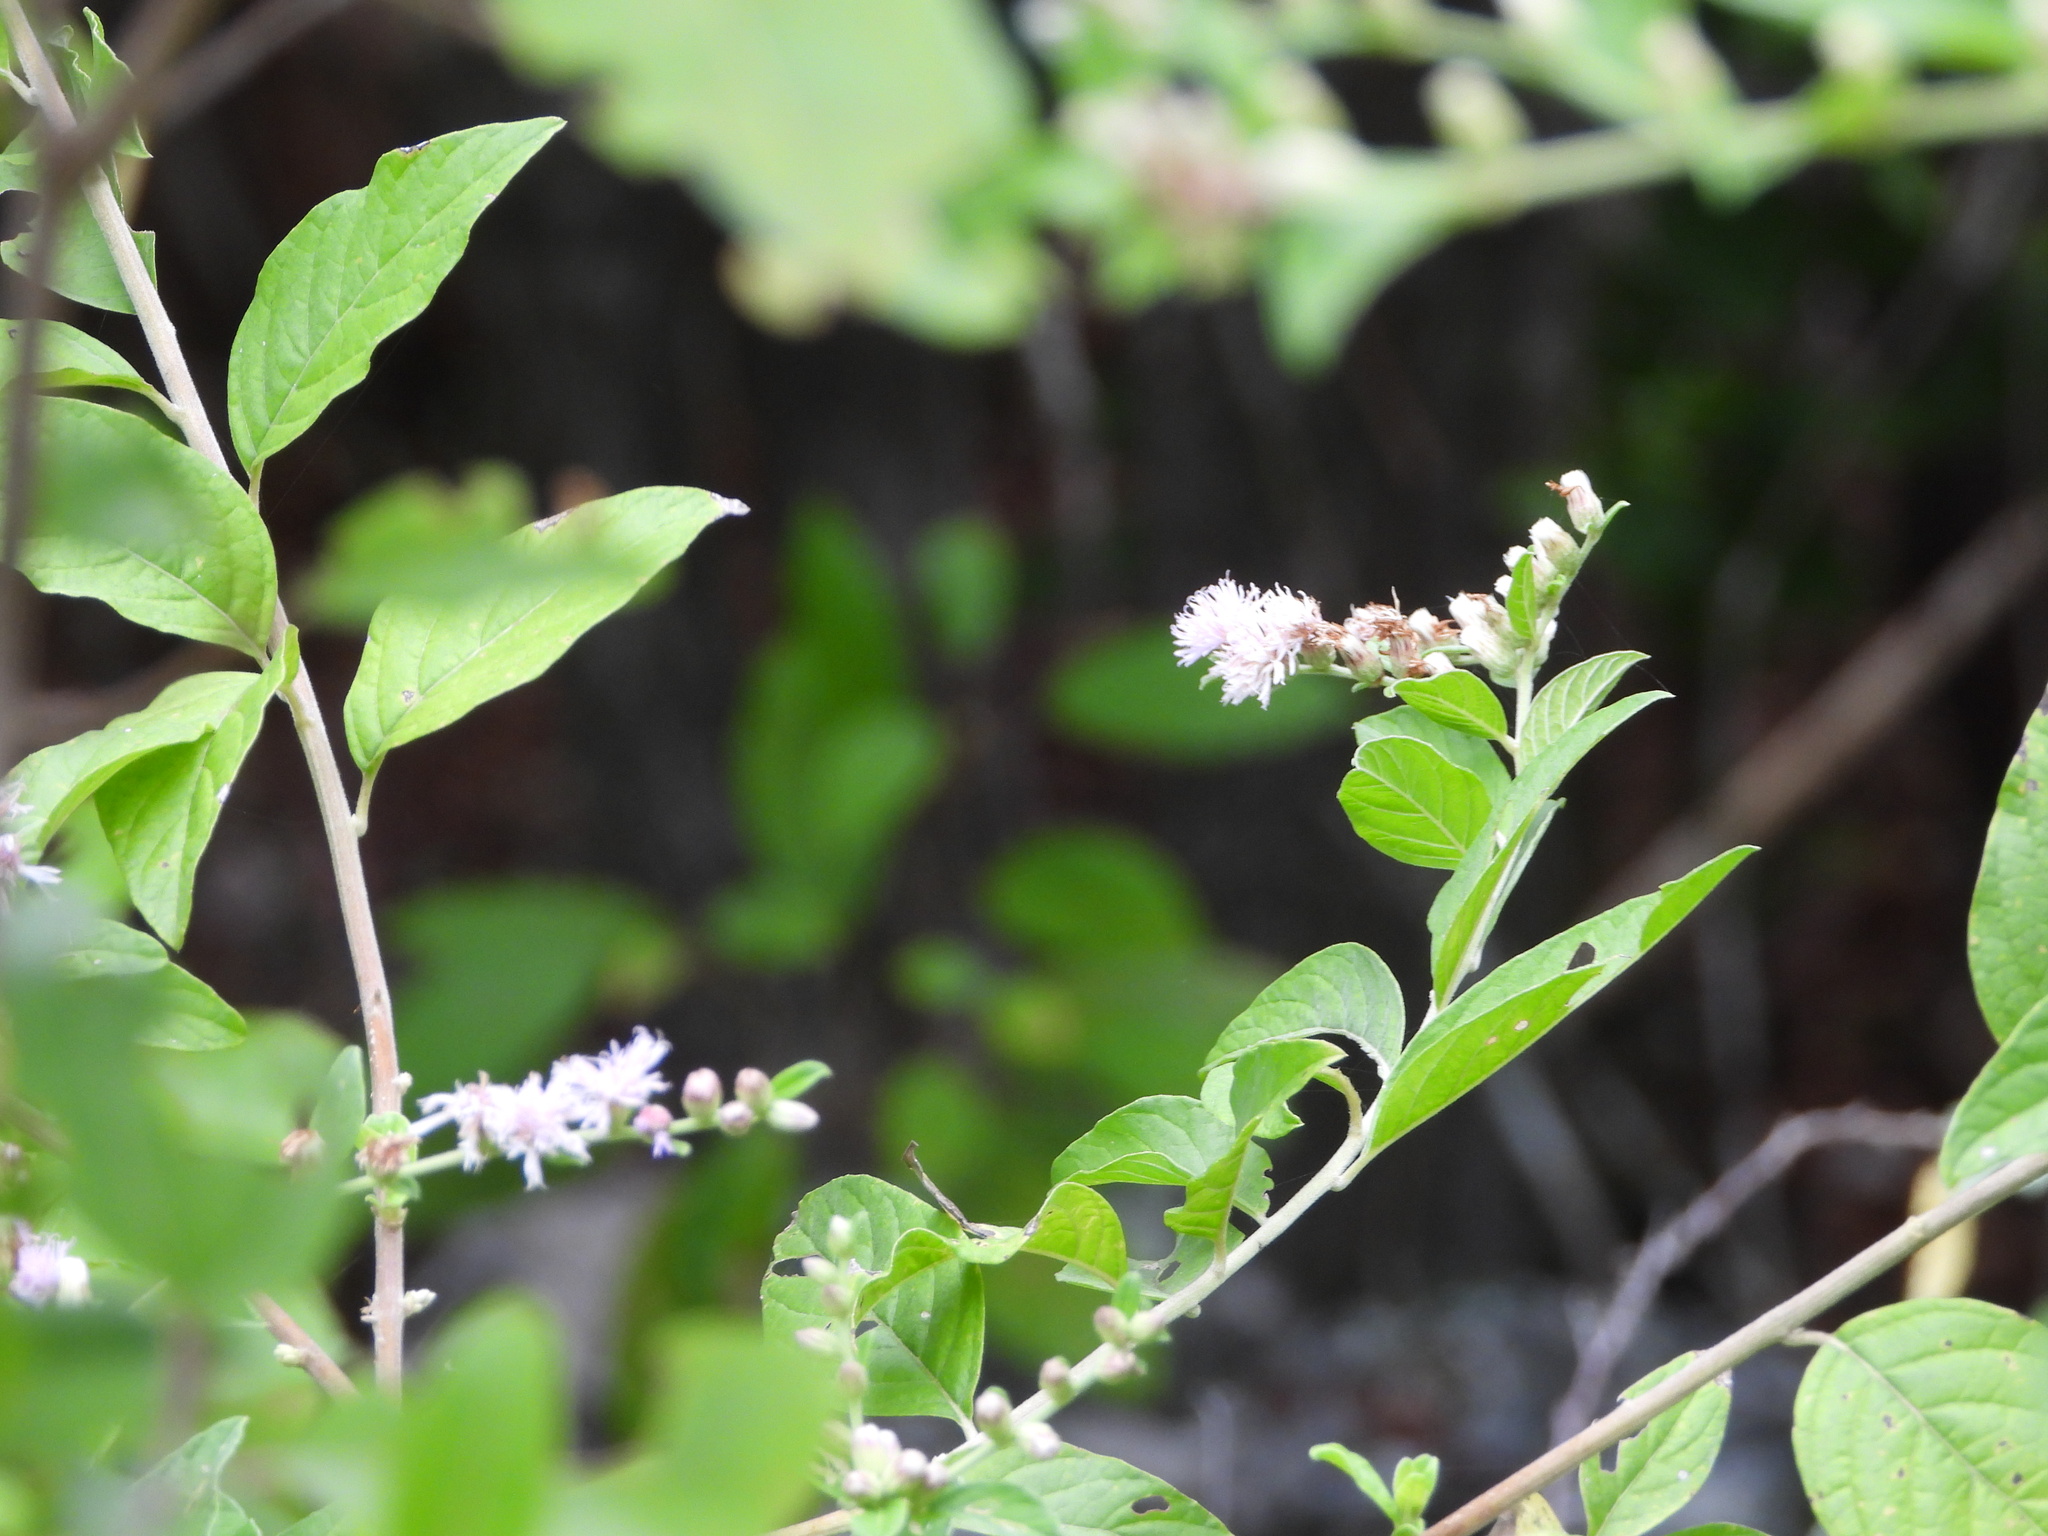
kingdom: Plantae
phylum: Tracheophyta
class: Magnoliopsida
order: Asterales
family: Asteraceae
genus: Lepidaploa
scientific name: Lepidaploa arborescens
